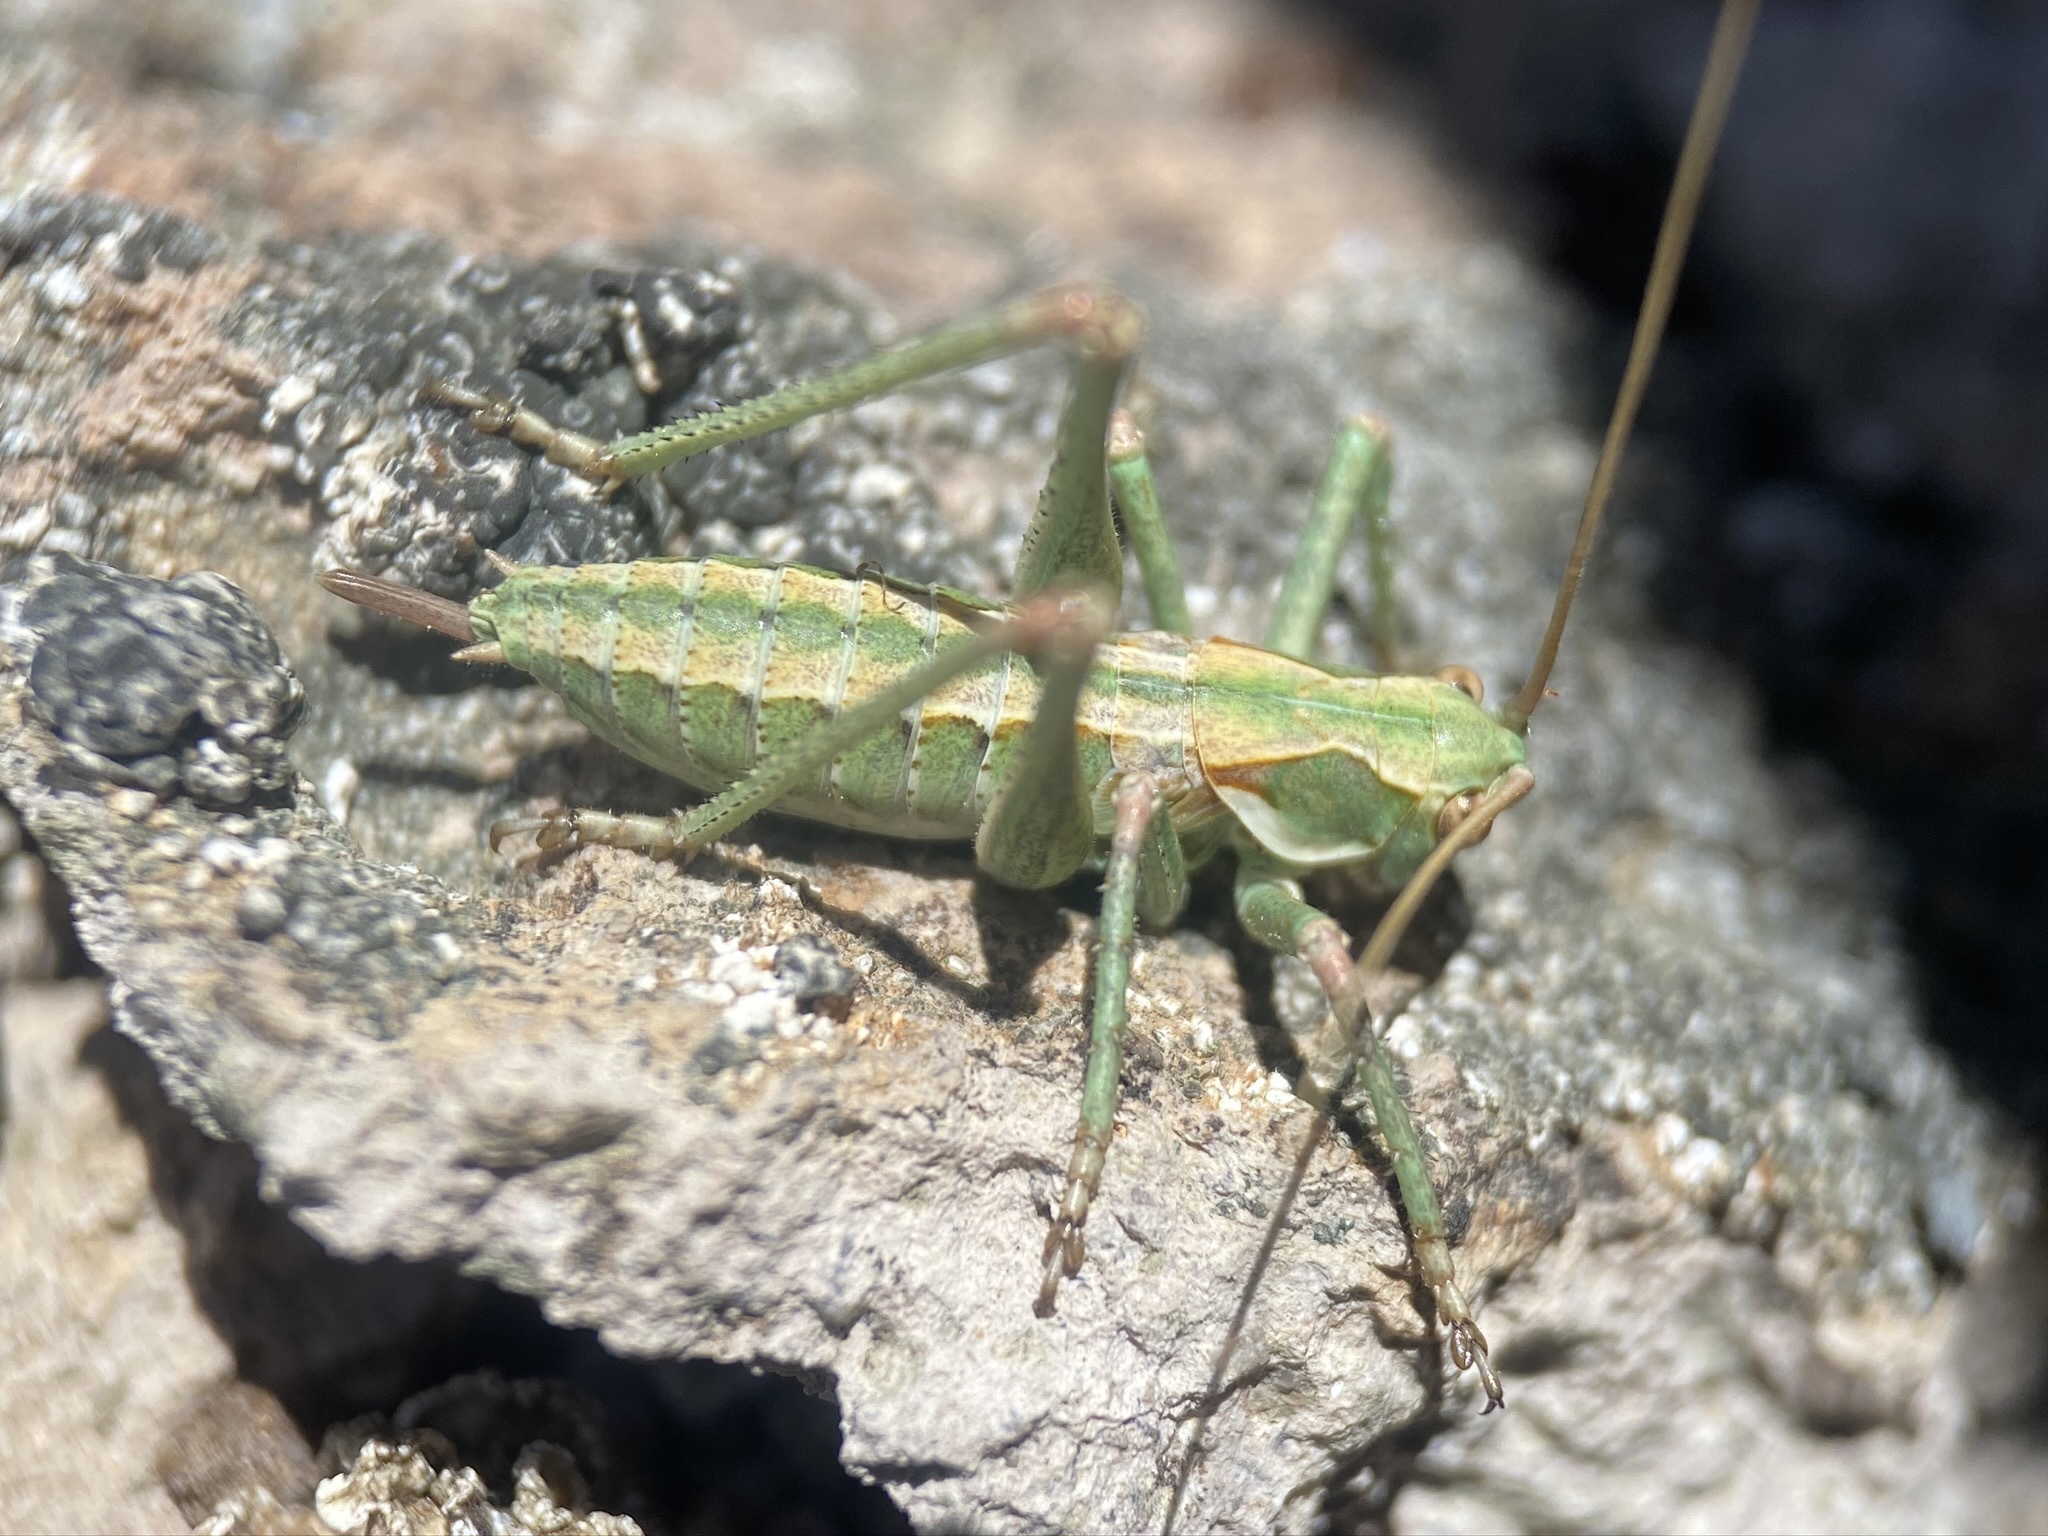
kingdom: Animalia
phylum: Arthropoda
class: Insecta
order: Orthoptera
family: Tettigoniidae
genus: Capnobotes
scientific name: Capnobotes occidentalis
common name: Western longwing
